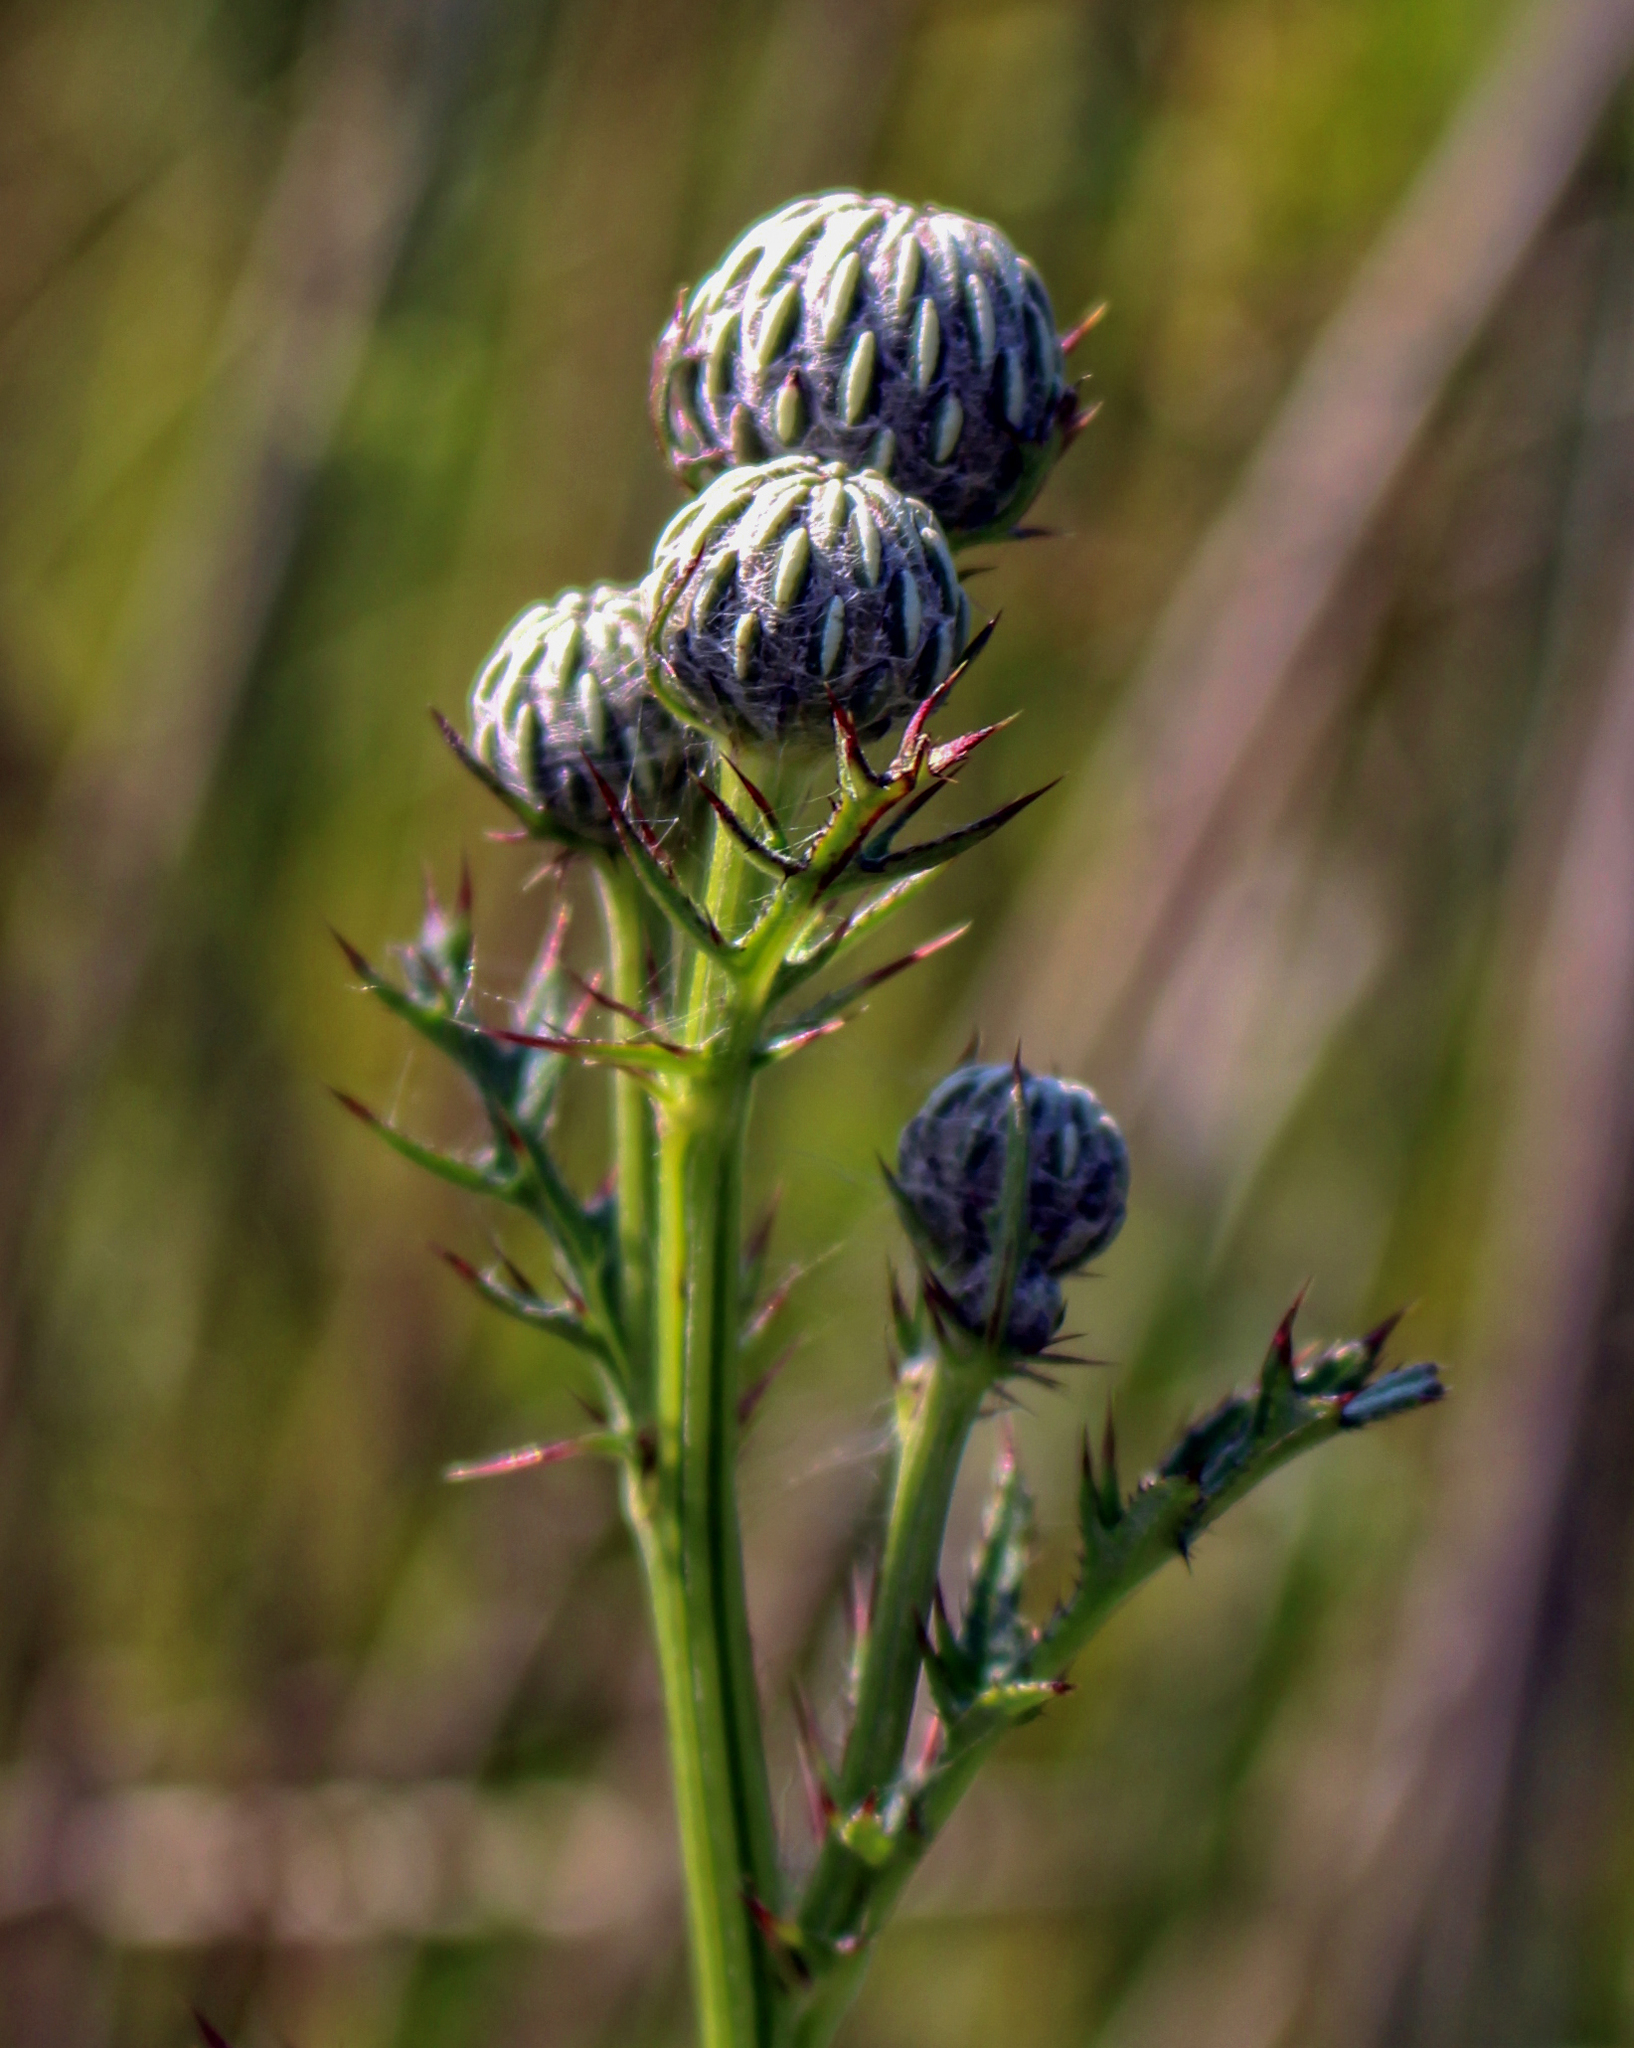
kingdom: Plantae
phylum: Tracheophyta
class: Magnoliopsida
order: Asterales
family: Asteraceae
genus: Cirsium
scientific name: Cirsium muticum
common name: Dunce-nettle
